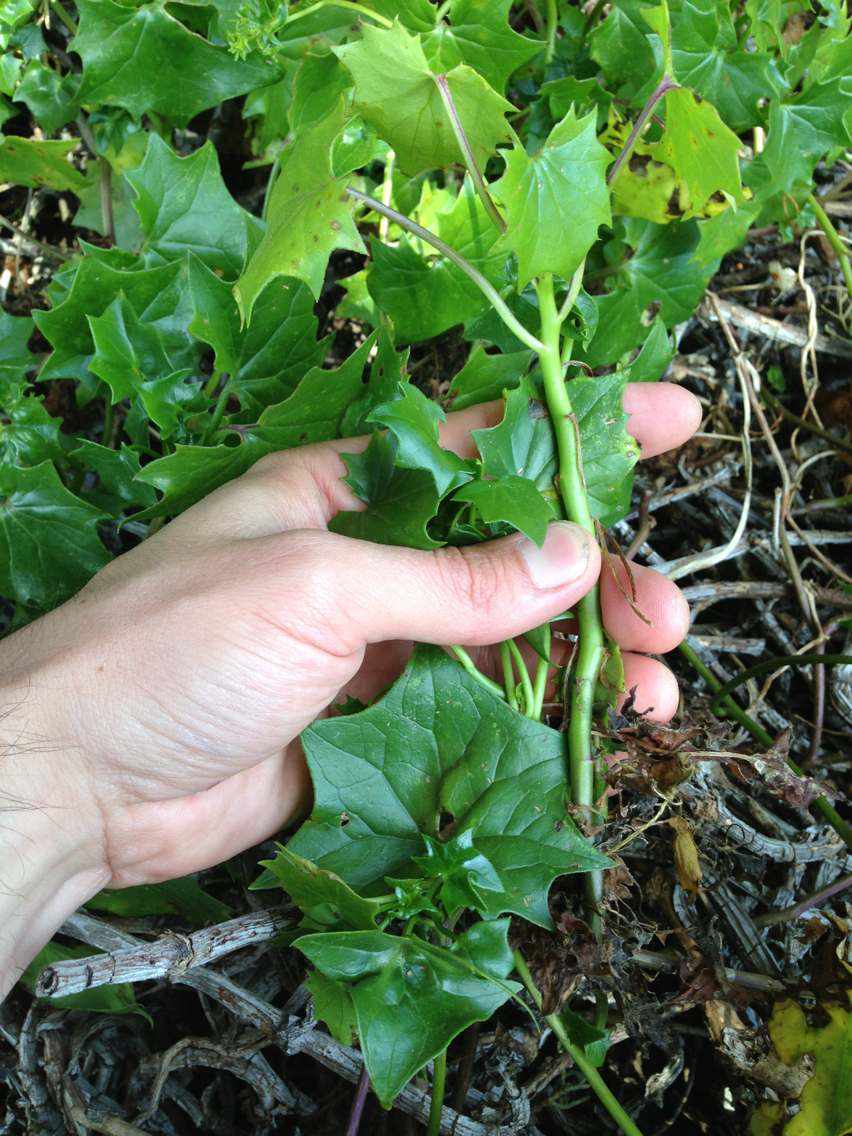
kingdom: Plantae
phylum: Tracheophyta
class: Magnoliopsida
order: Asterales
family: Asteraceae
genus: Delairea
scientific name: Delairea odorata
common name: Cape-ivy
